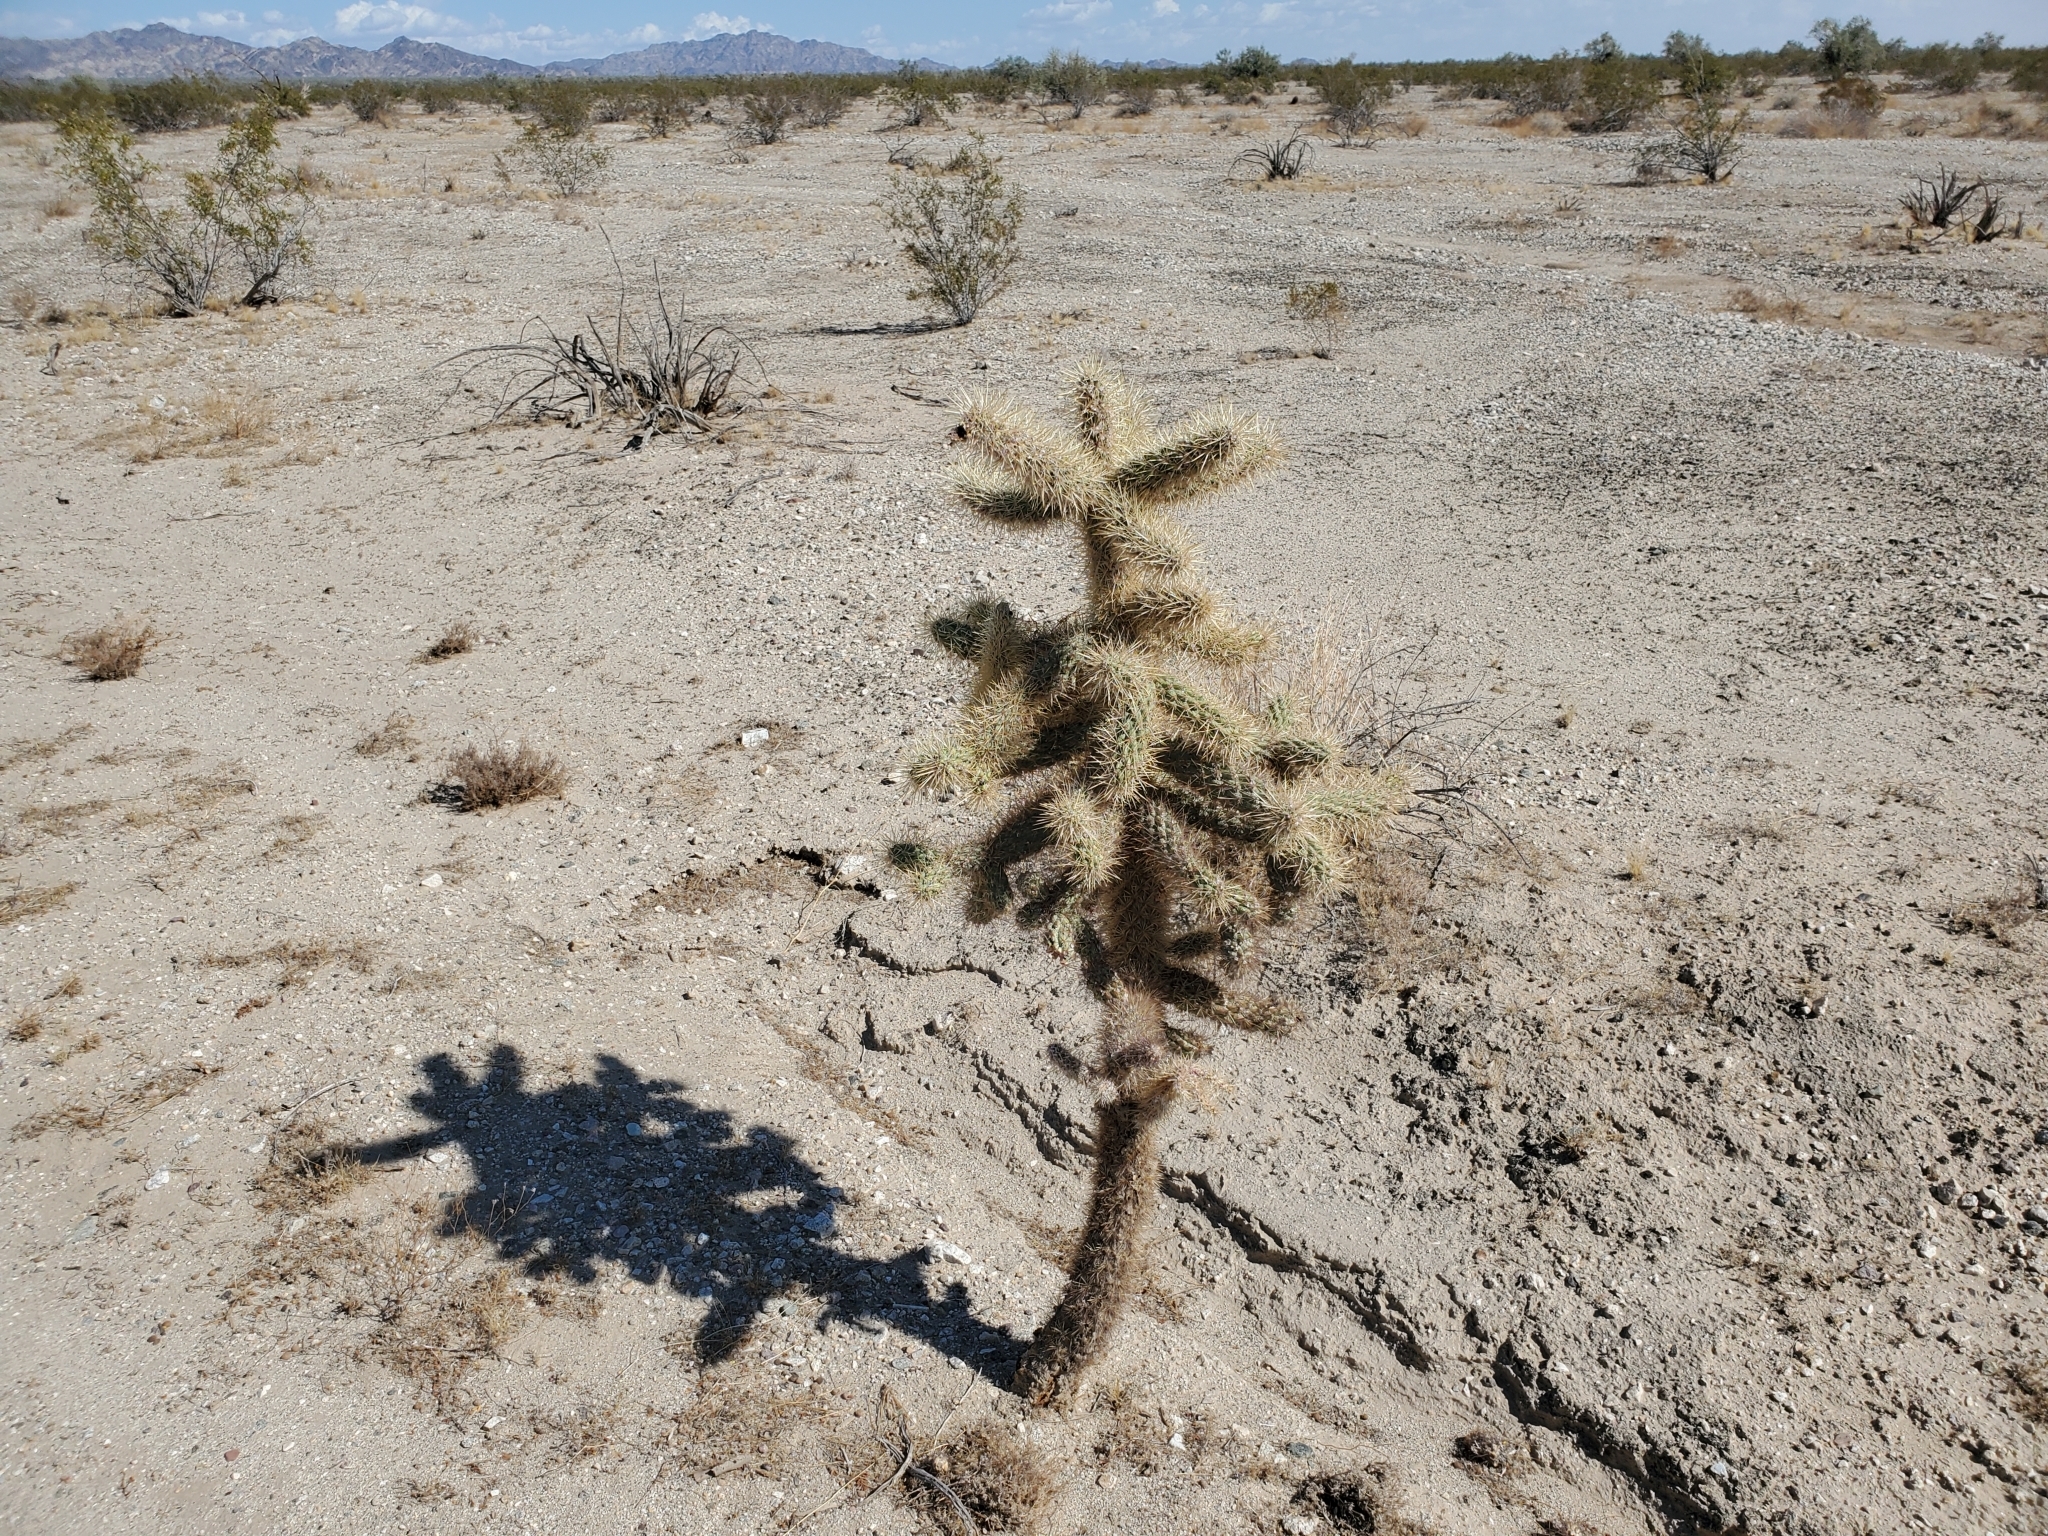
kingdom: Plantae
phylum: Tracheophyta
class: Magnoliopsida
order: Caryophyllales
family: Cactaceae
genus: Cylindropuntia
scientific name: Cylindropuntia echinocarpa
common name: Ground cholla
